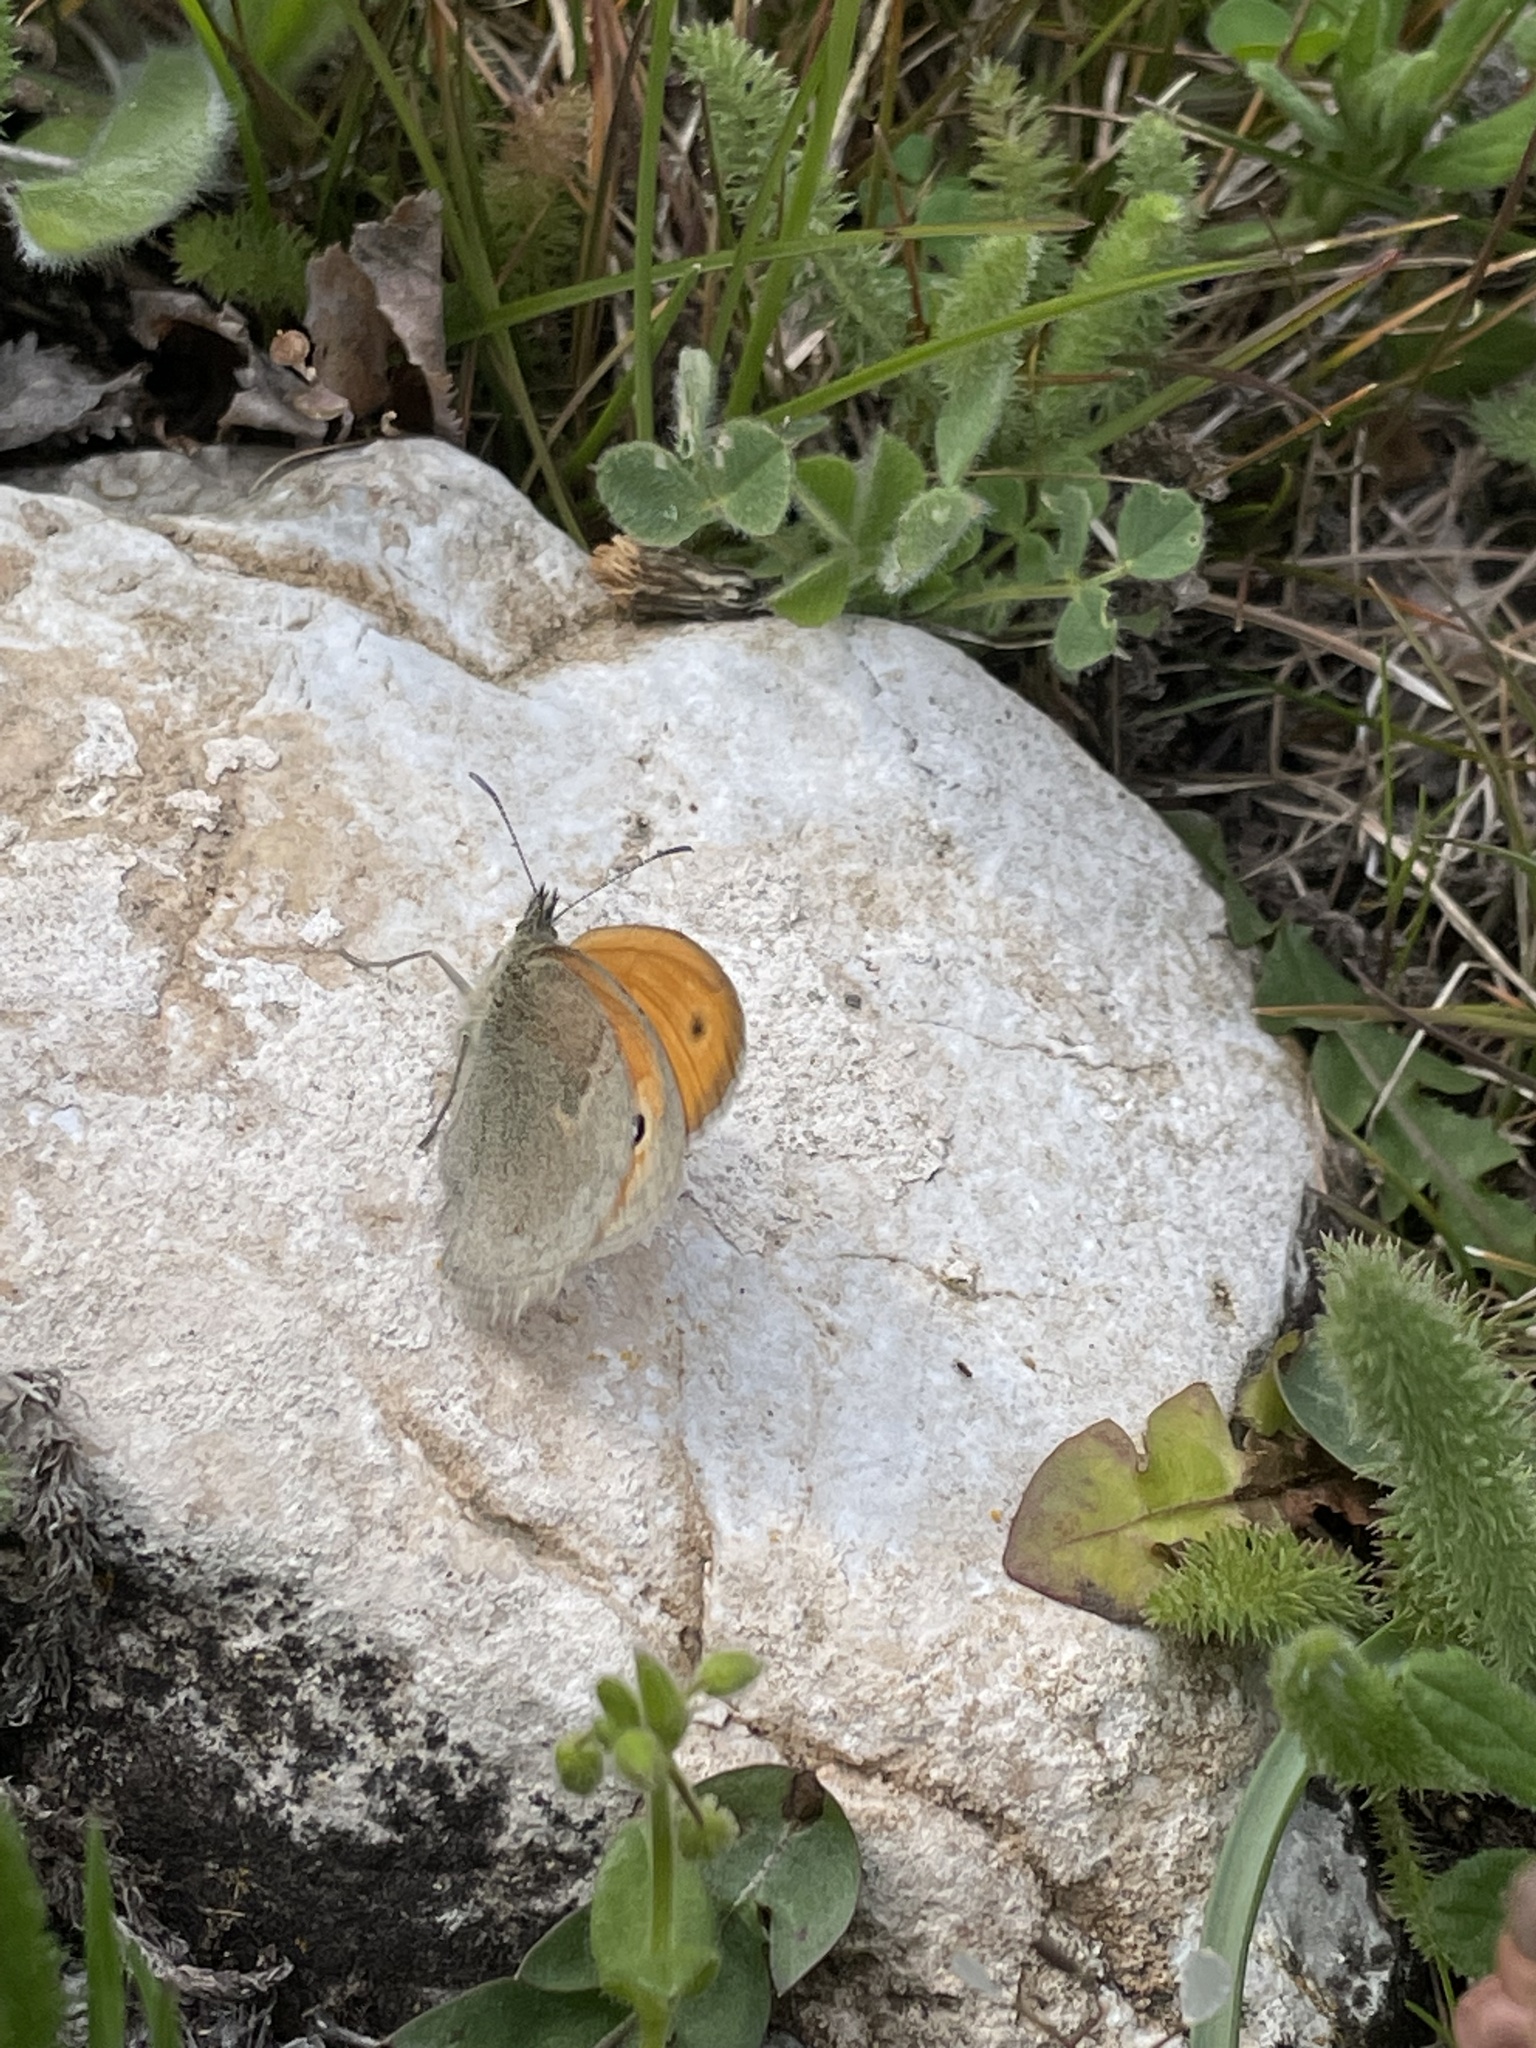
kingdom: Animalia
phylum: Arthropoda
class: Insecta
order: Lepidoptera
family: Nymphalidae
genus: Coenonympha
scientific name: Coenonympha pamphilus
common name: Small heath
